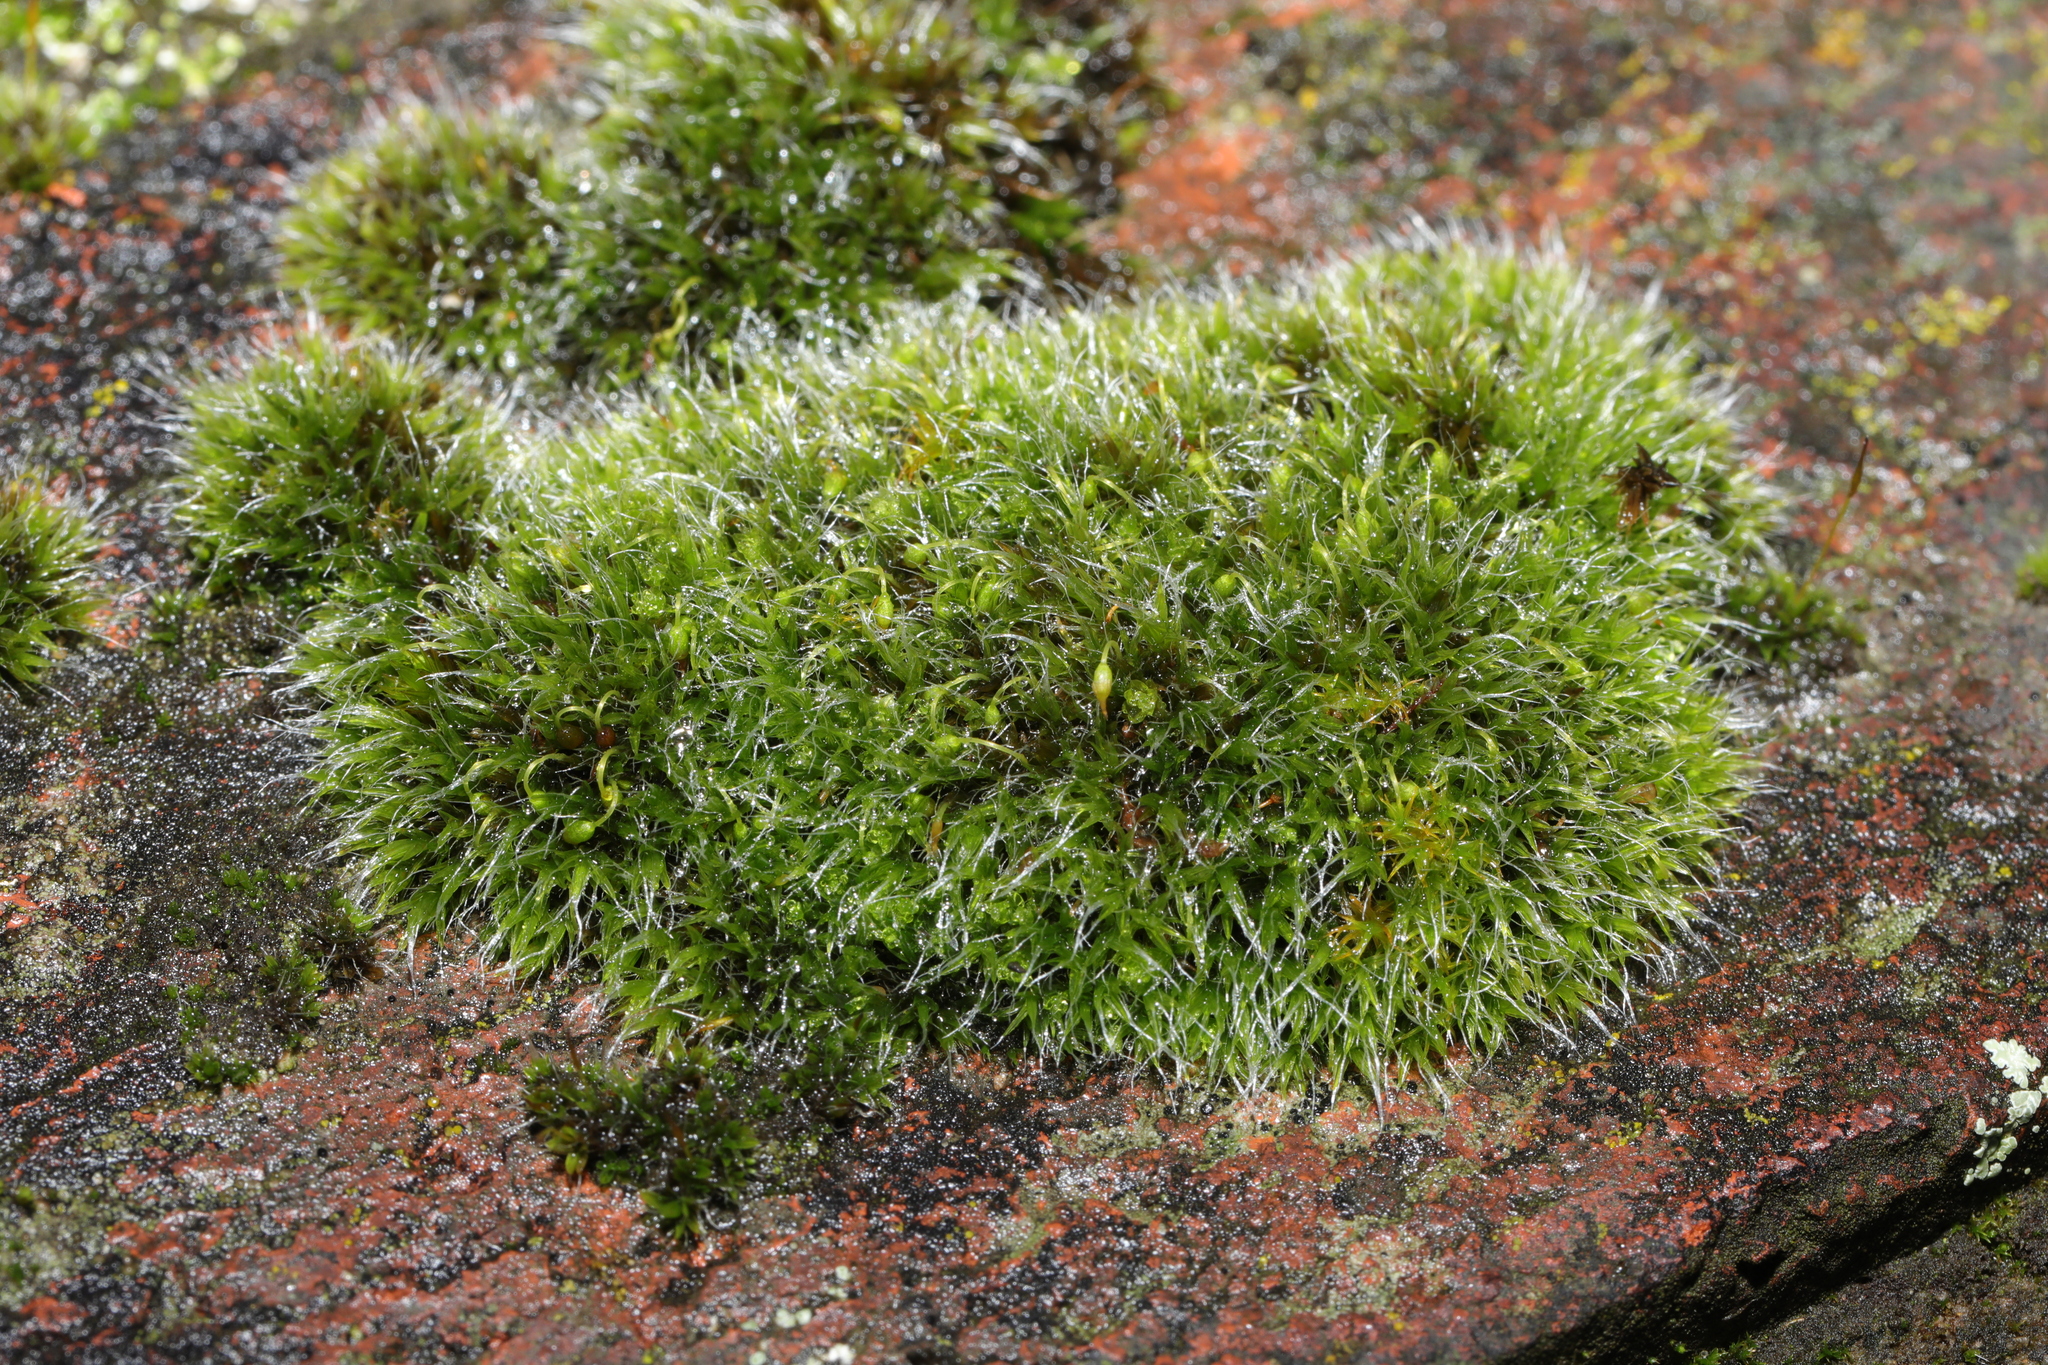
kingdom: Plantae
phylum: Bryophyta
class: Bryopsida
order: Grimmiales
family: Grimmiaceae
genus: Grimmia
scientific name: Grimmia pulvinata
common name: Grey-cushioned grimmia
